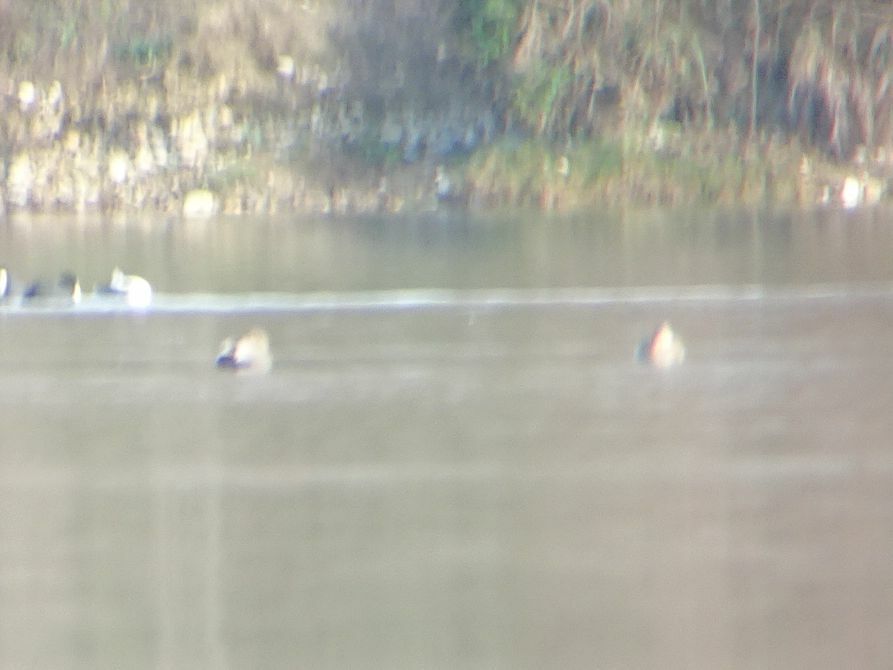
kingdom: Animalia
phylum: Chordata
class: Aves
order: Anseriformes
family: Anatidae
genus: Mareca
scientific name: Mareca strepera
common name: Gadwall
